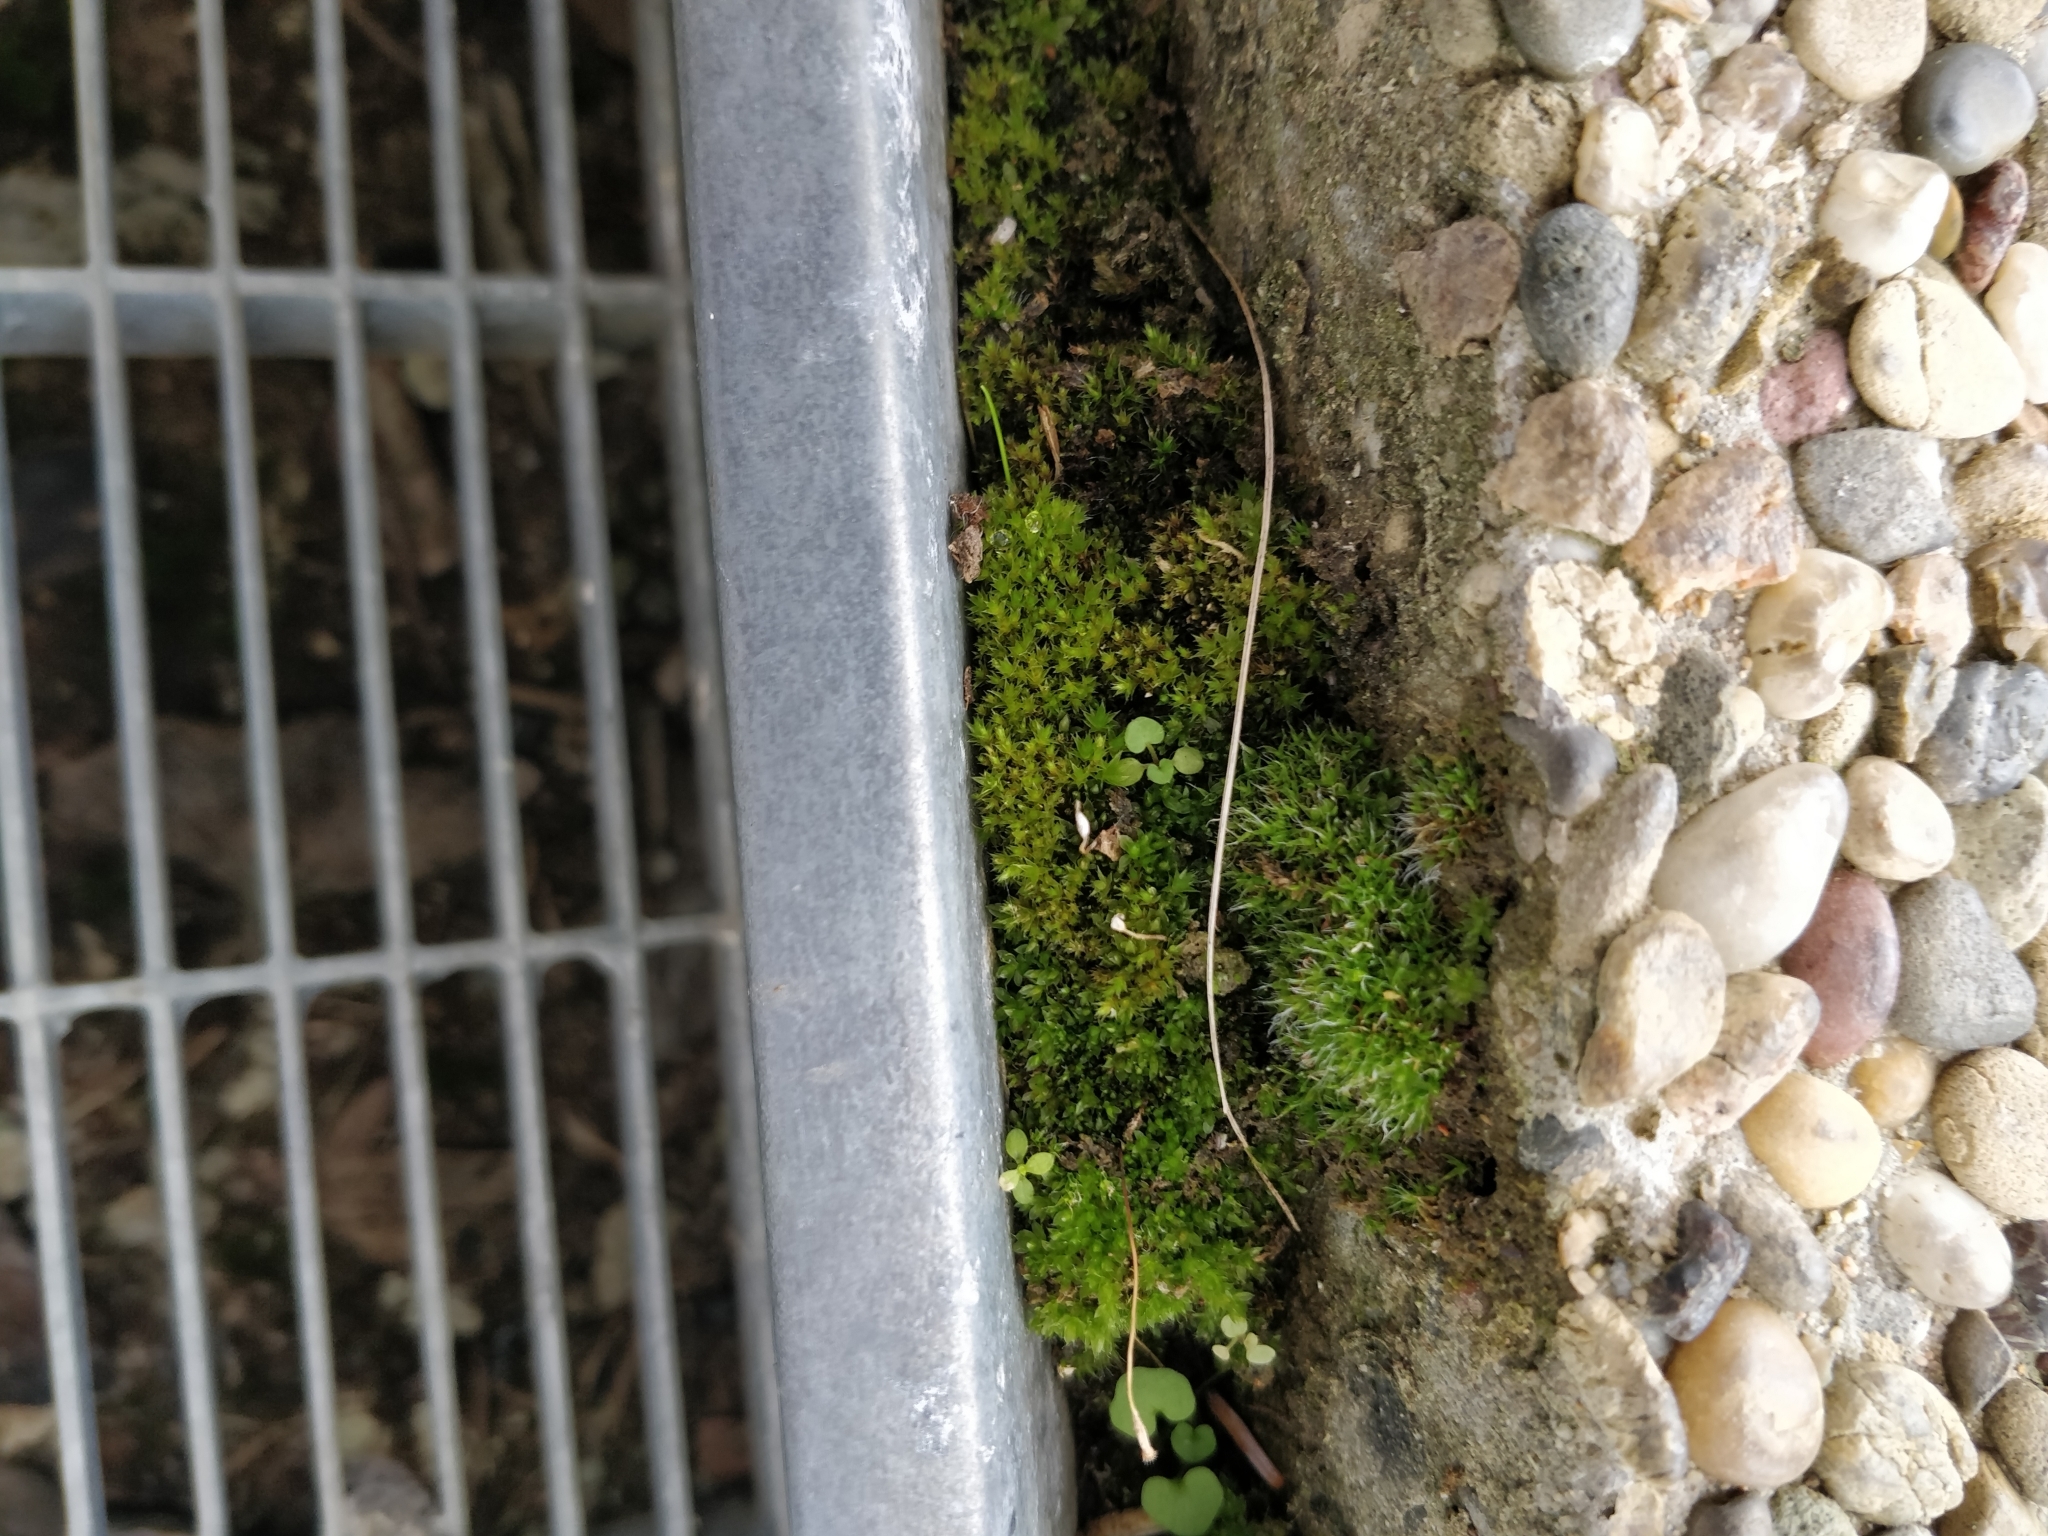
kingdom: Plantae
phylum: Bryophyta
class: Bryopsida
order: Bryales
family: Bryaceae
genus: Rosulabryum
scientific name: Rosulabryum capillare
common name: Capillary thread-moss
